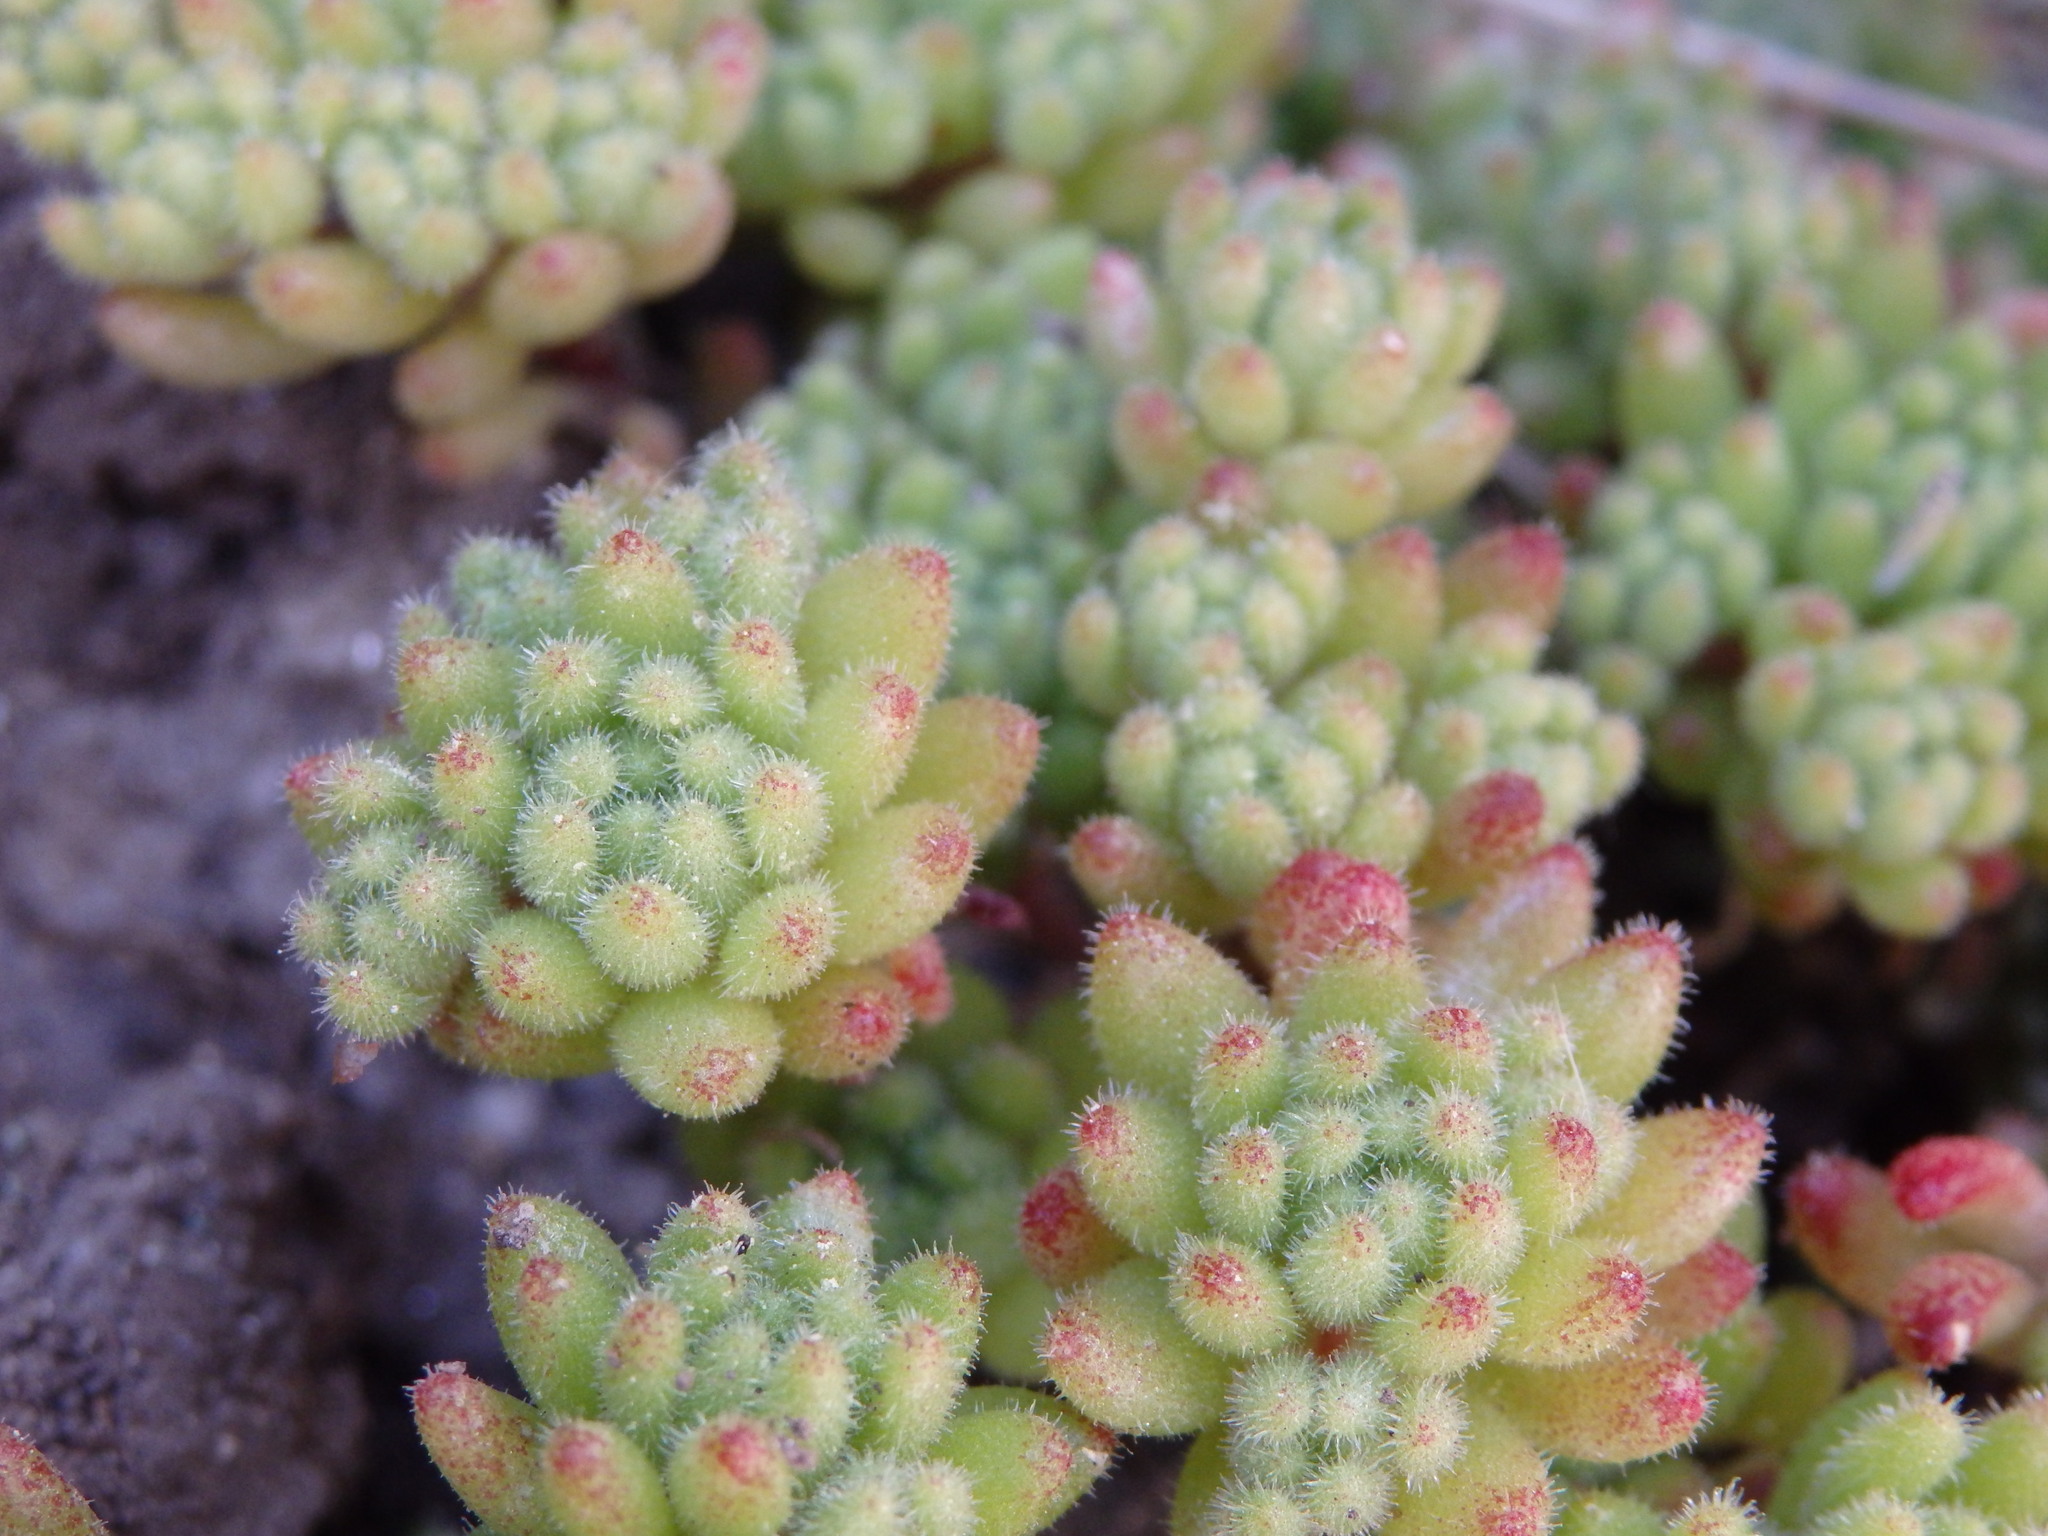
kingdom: Plantae
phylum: Tracheophyta
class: Magnoliopsida
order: Saxifragales
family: Crassulaceae
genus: Sedum
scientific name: Sedum hirsutum
